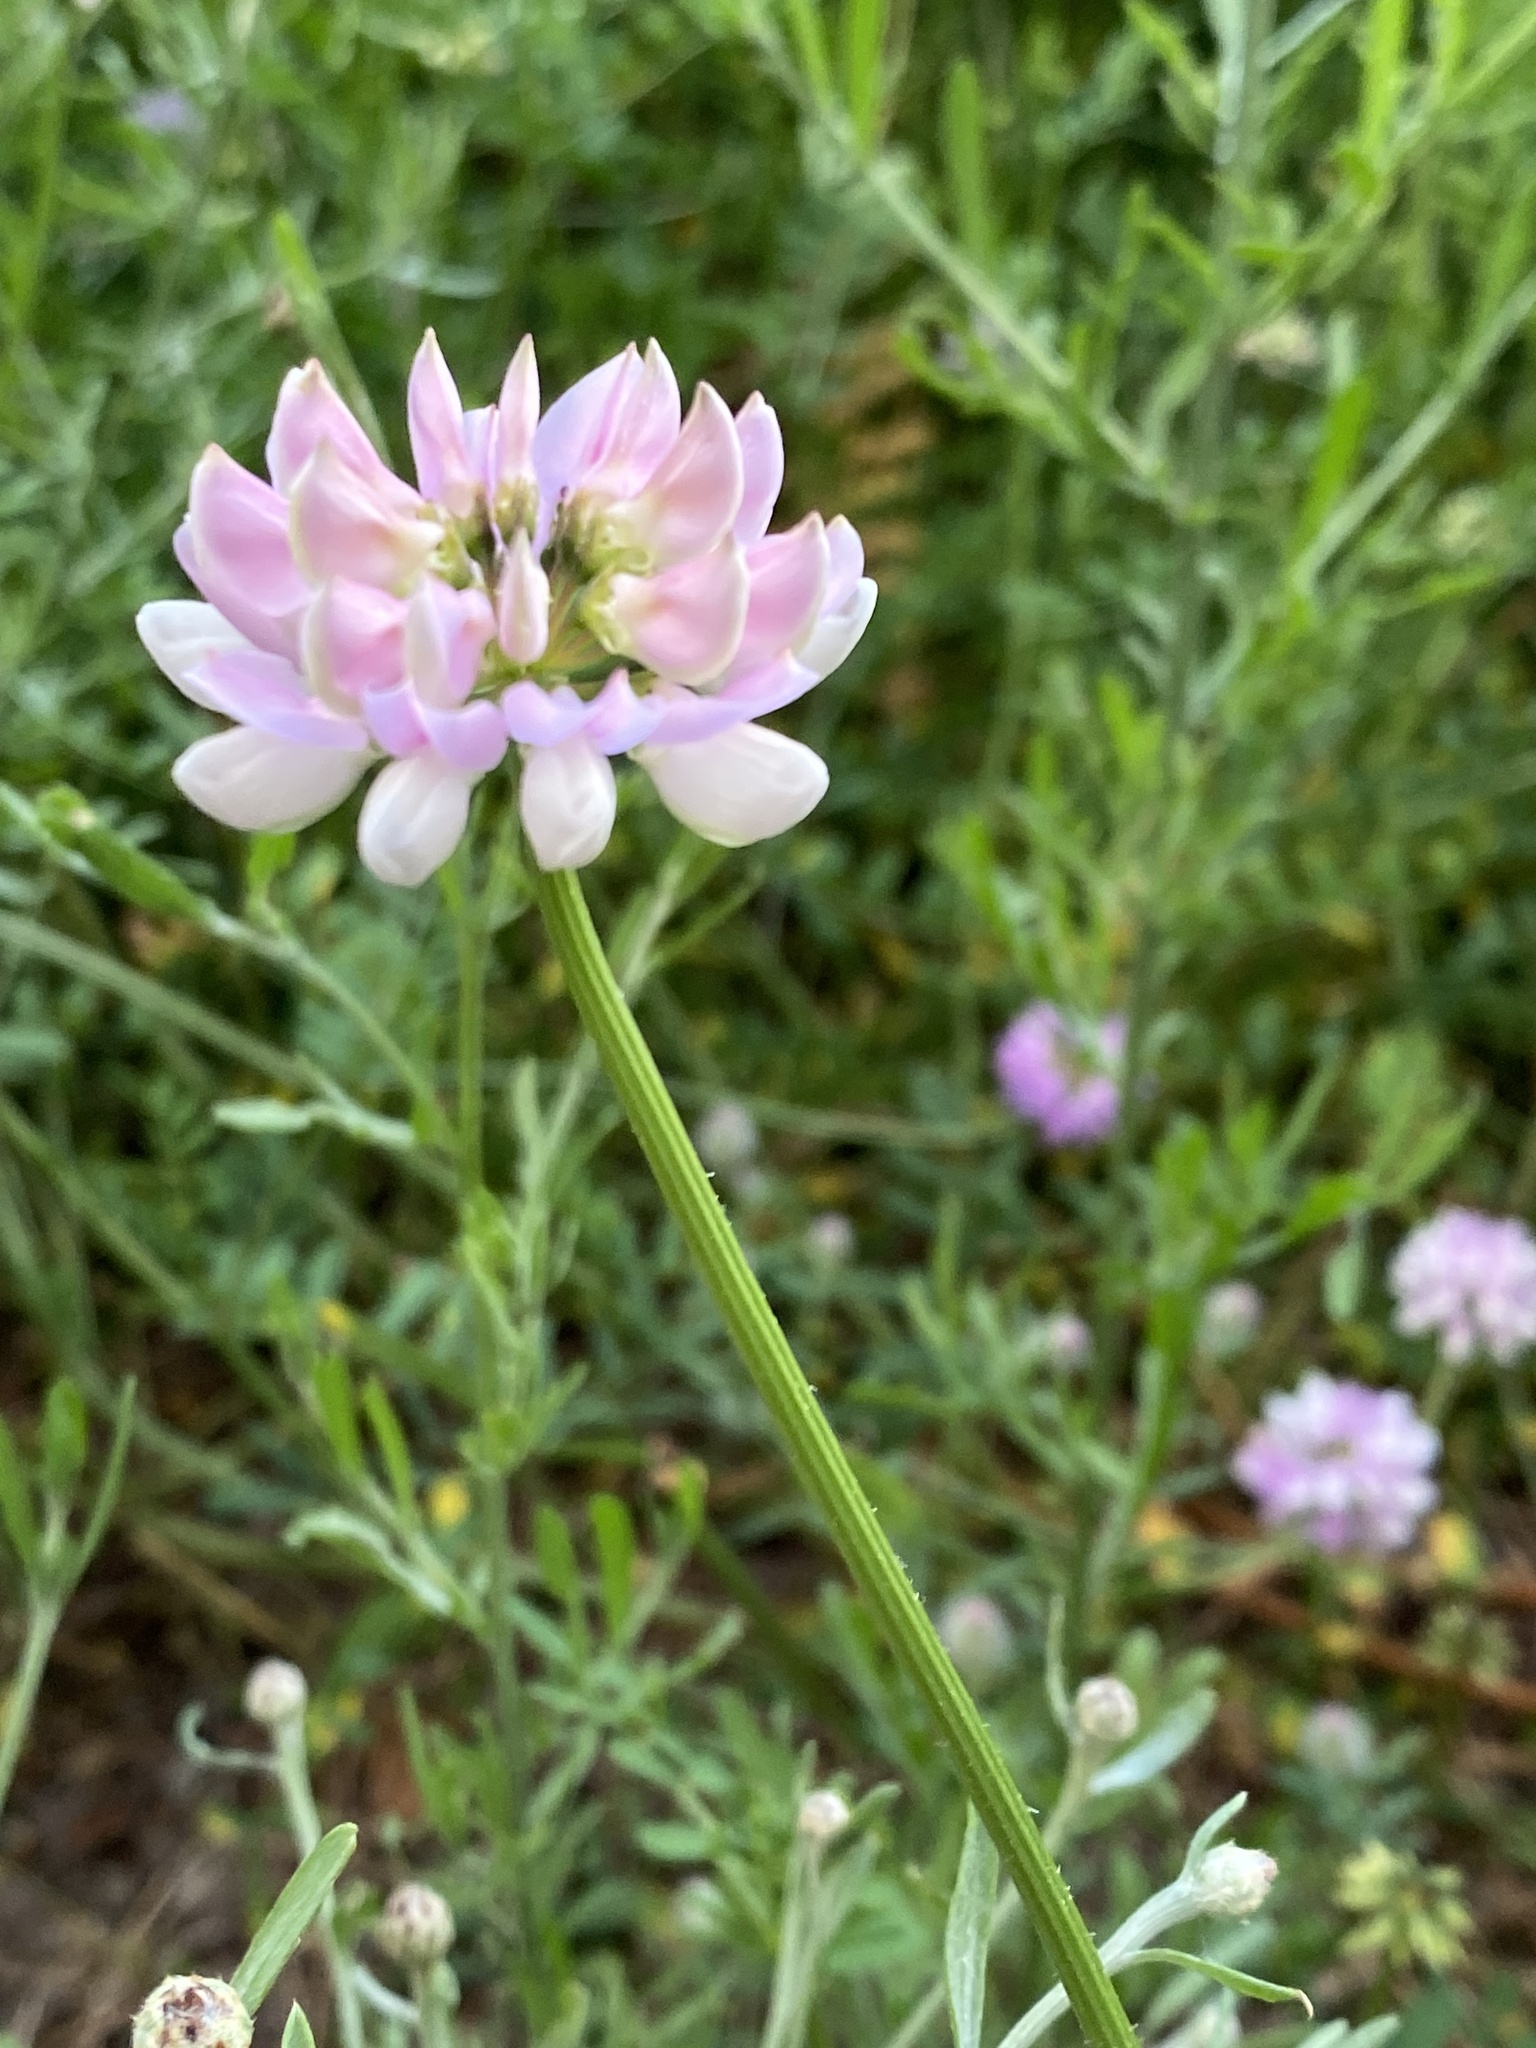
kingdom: Plantae
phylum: Tracheophyta
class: Magnoliopsida
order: Fabales
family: Fabaceae
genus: Coronilla
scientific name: Coronilla varia
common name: Crownvetch
